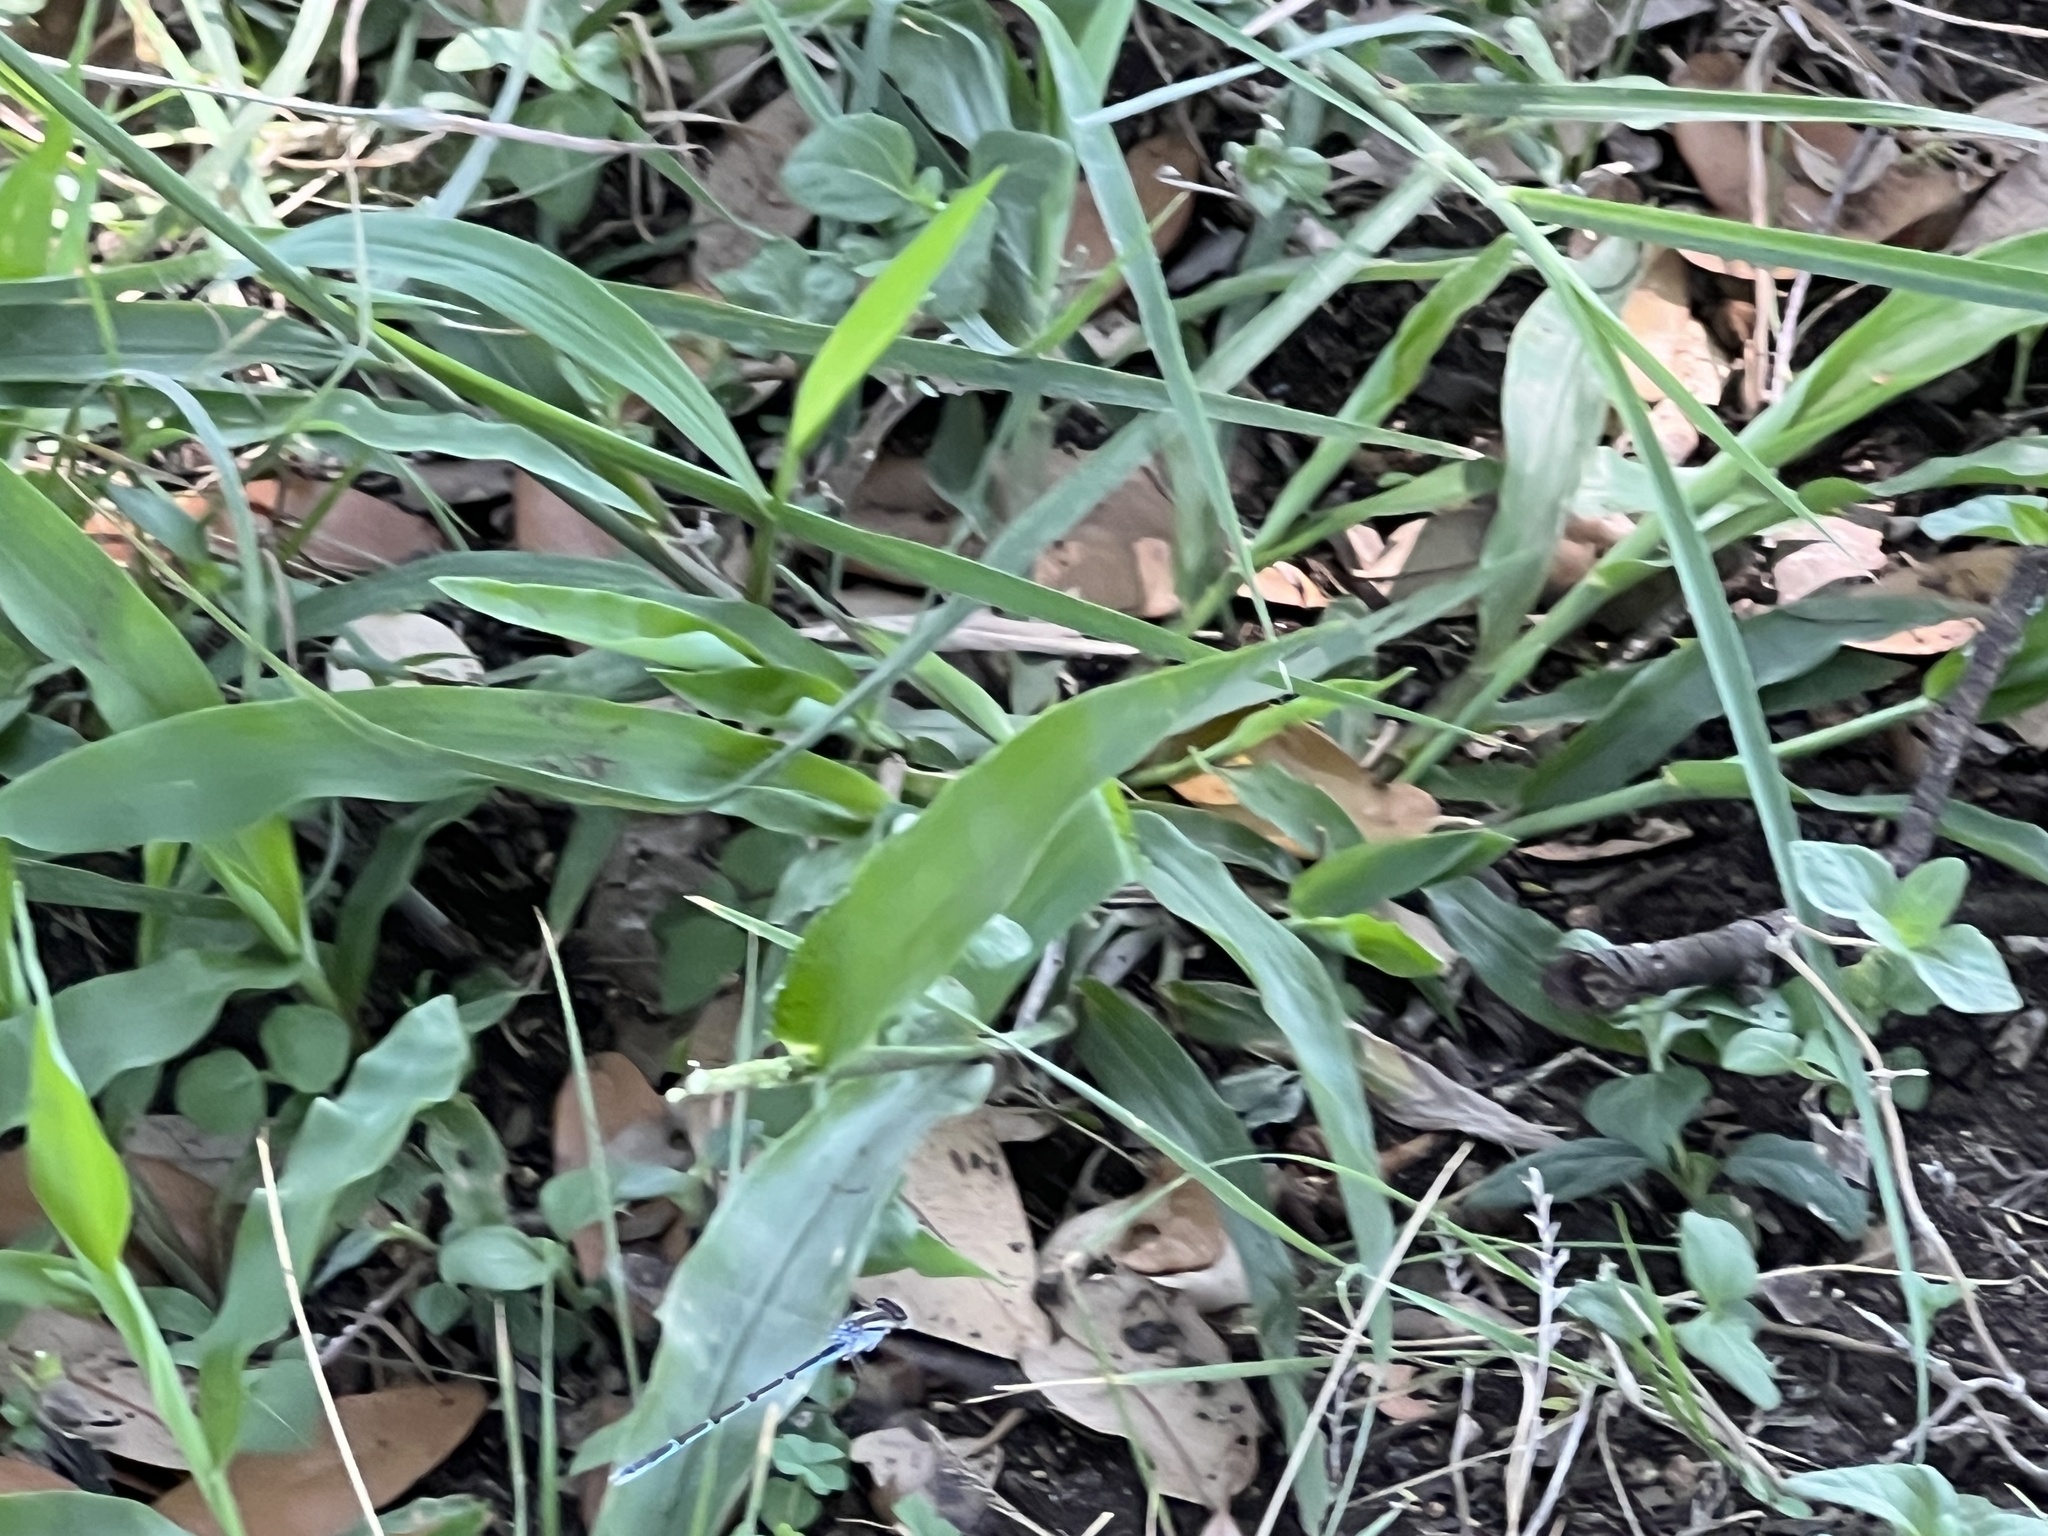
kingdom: Animalia
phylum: Arthropoda
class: Insecta
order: Odonata
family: Coenagrionidae
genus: Argia
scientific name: Argia sedula
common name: Blue-ringed dancer
